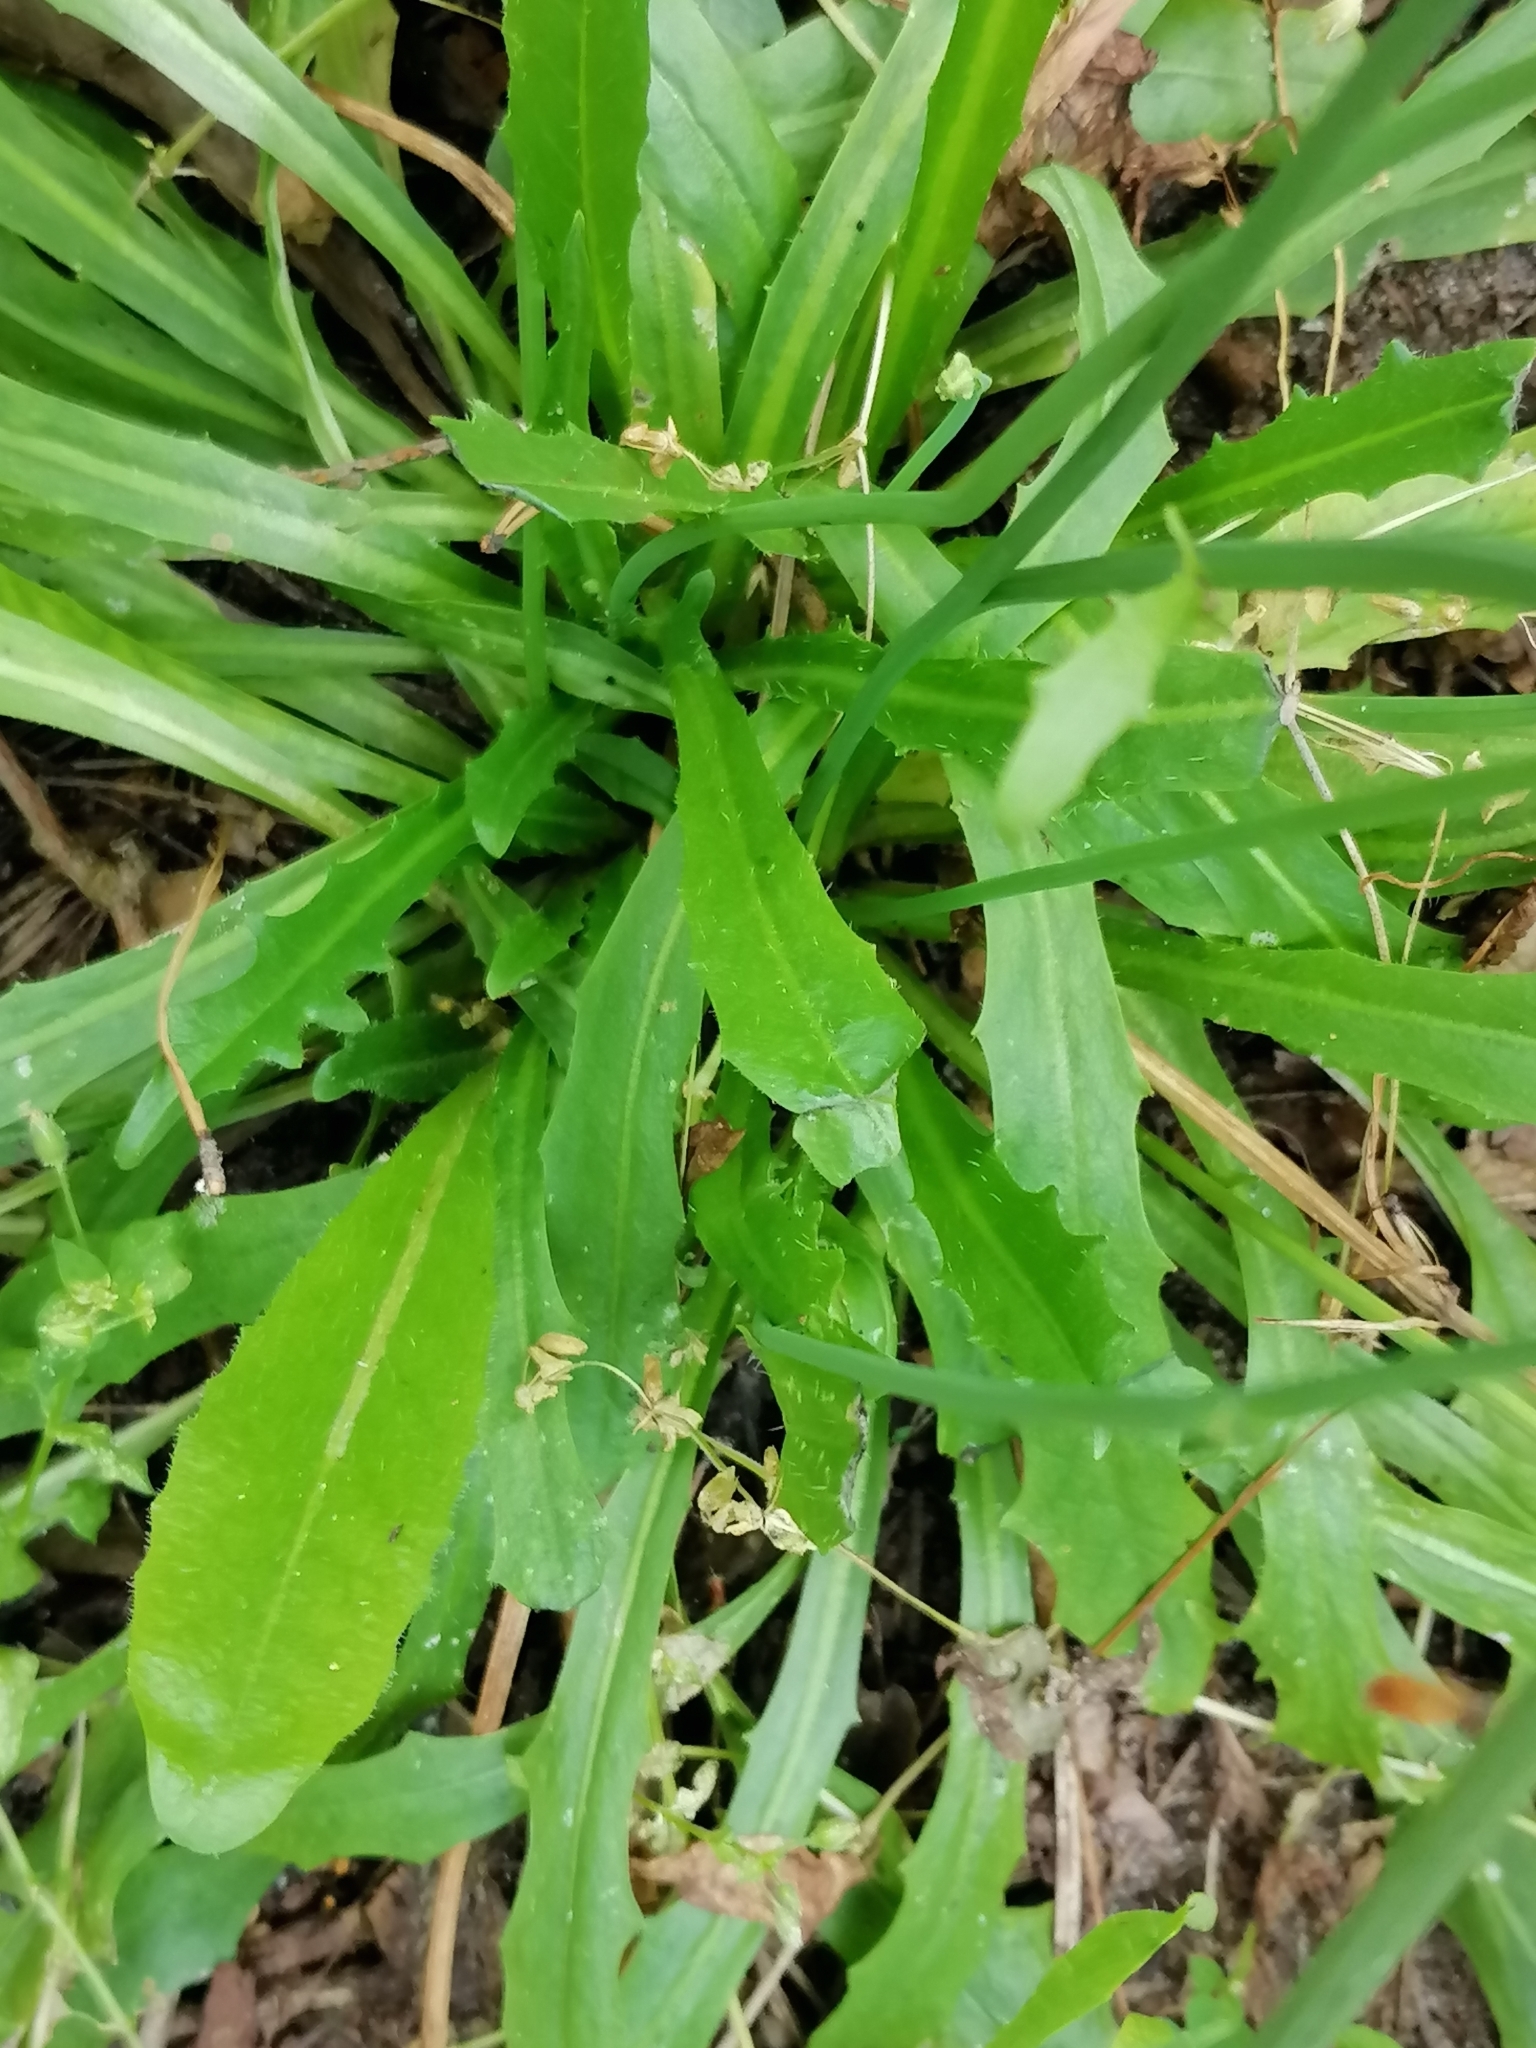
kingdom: Plantae
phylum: Tracheophyta
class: Magnoliopsida
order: Asterales
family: Asteraceae
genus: Hypochaeris
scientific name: Hypochaeris radicata
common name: Flatweed
